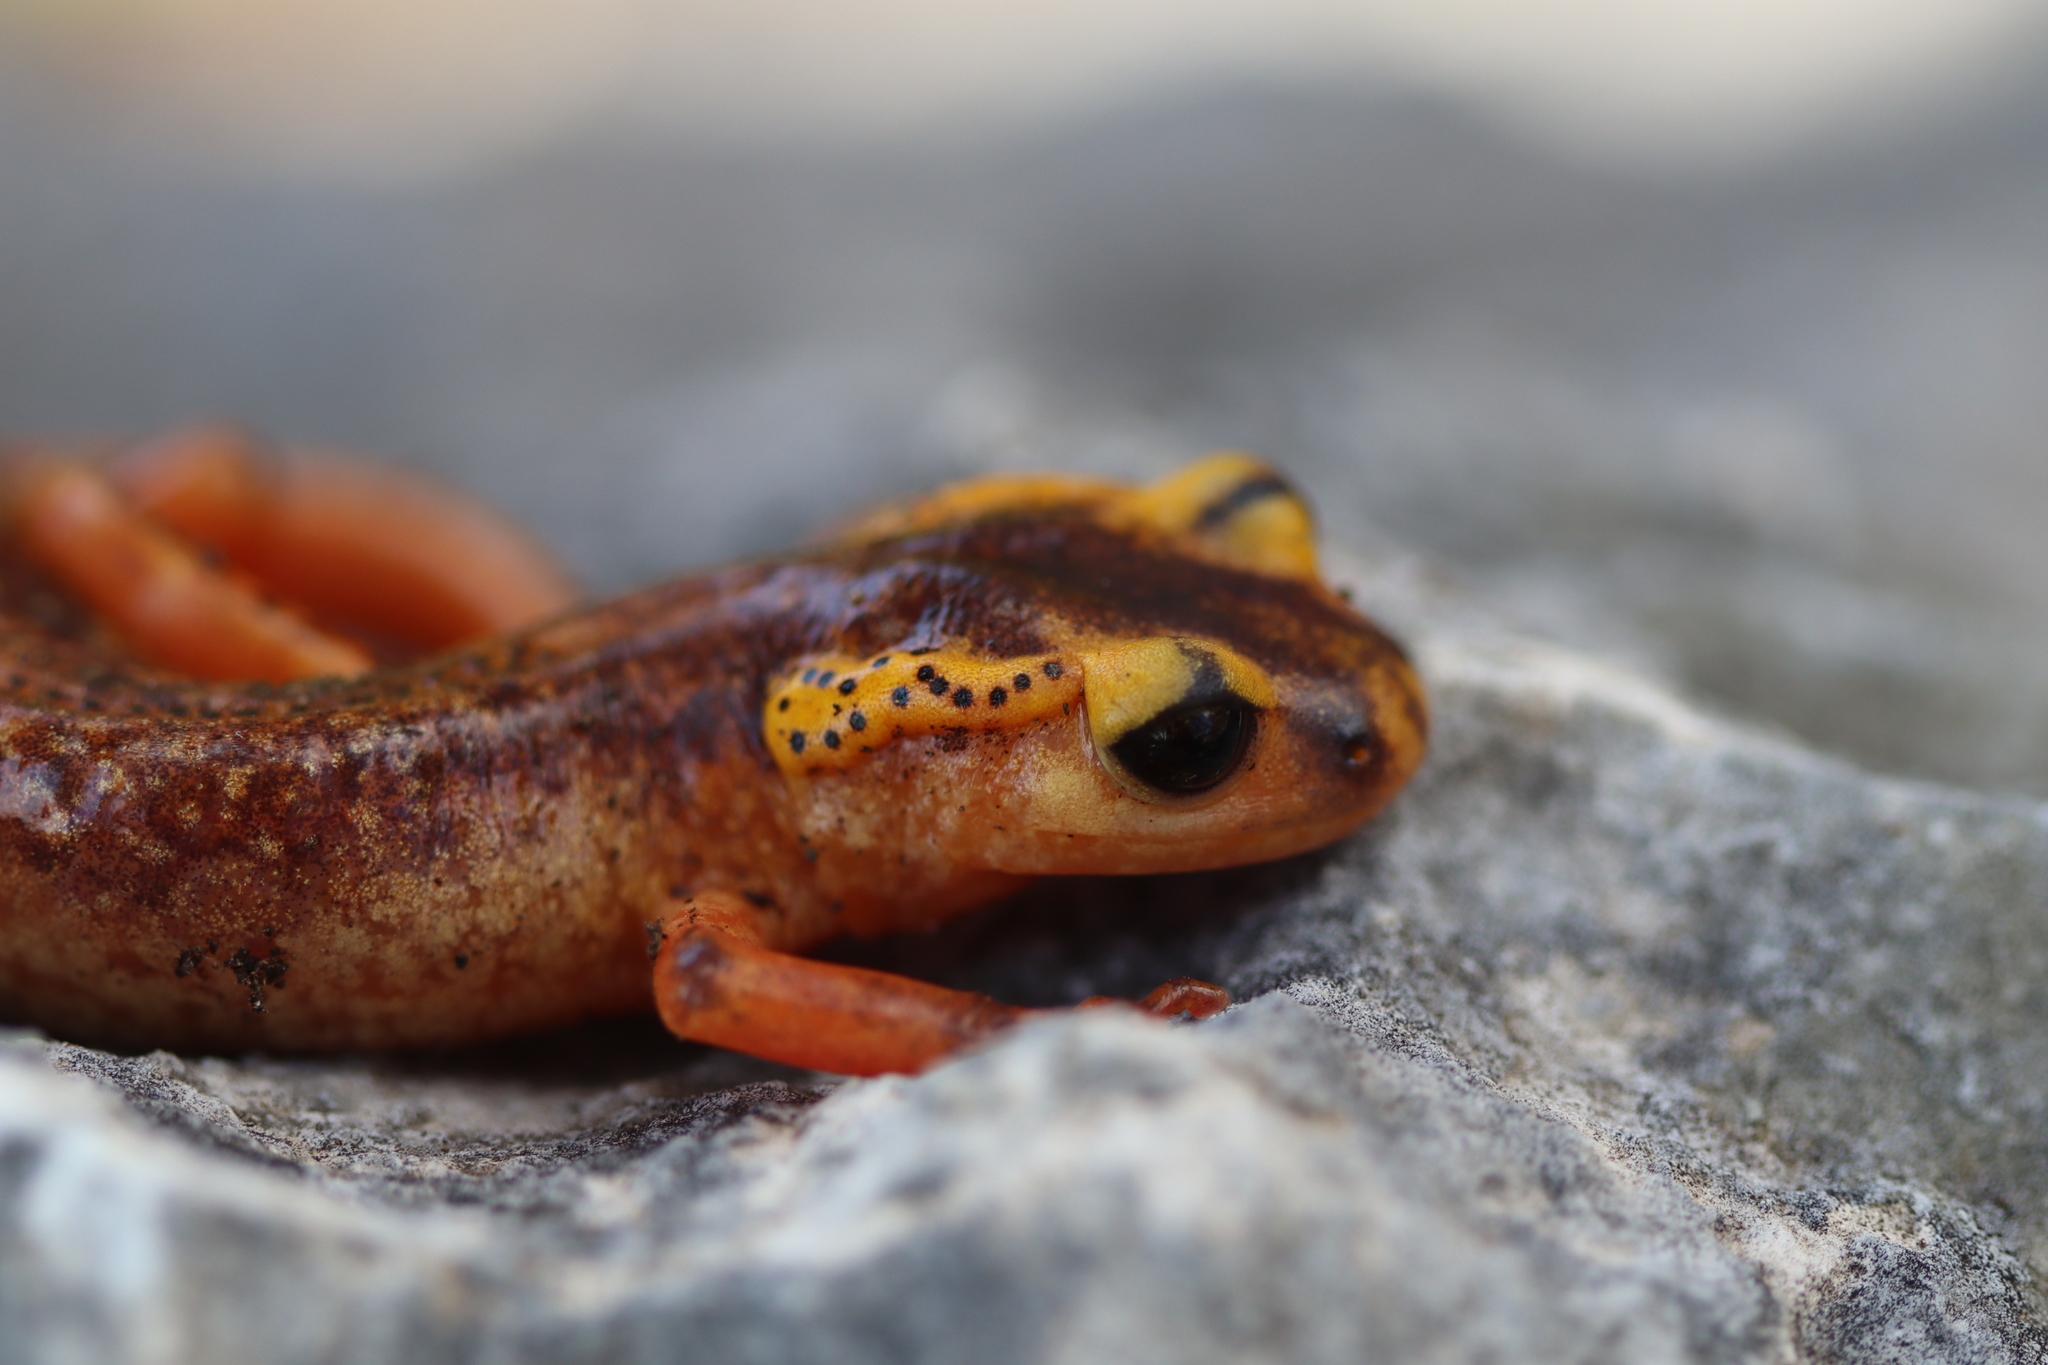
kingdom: Animalia
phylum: Chordata
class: Amphibia
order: Caudata
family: Salamandridae
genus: Lyciasalamandra
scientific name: Lyciasalamandra antalyana
